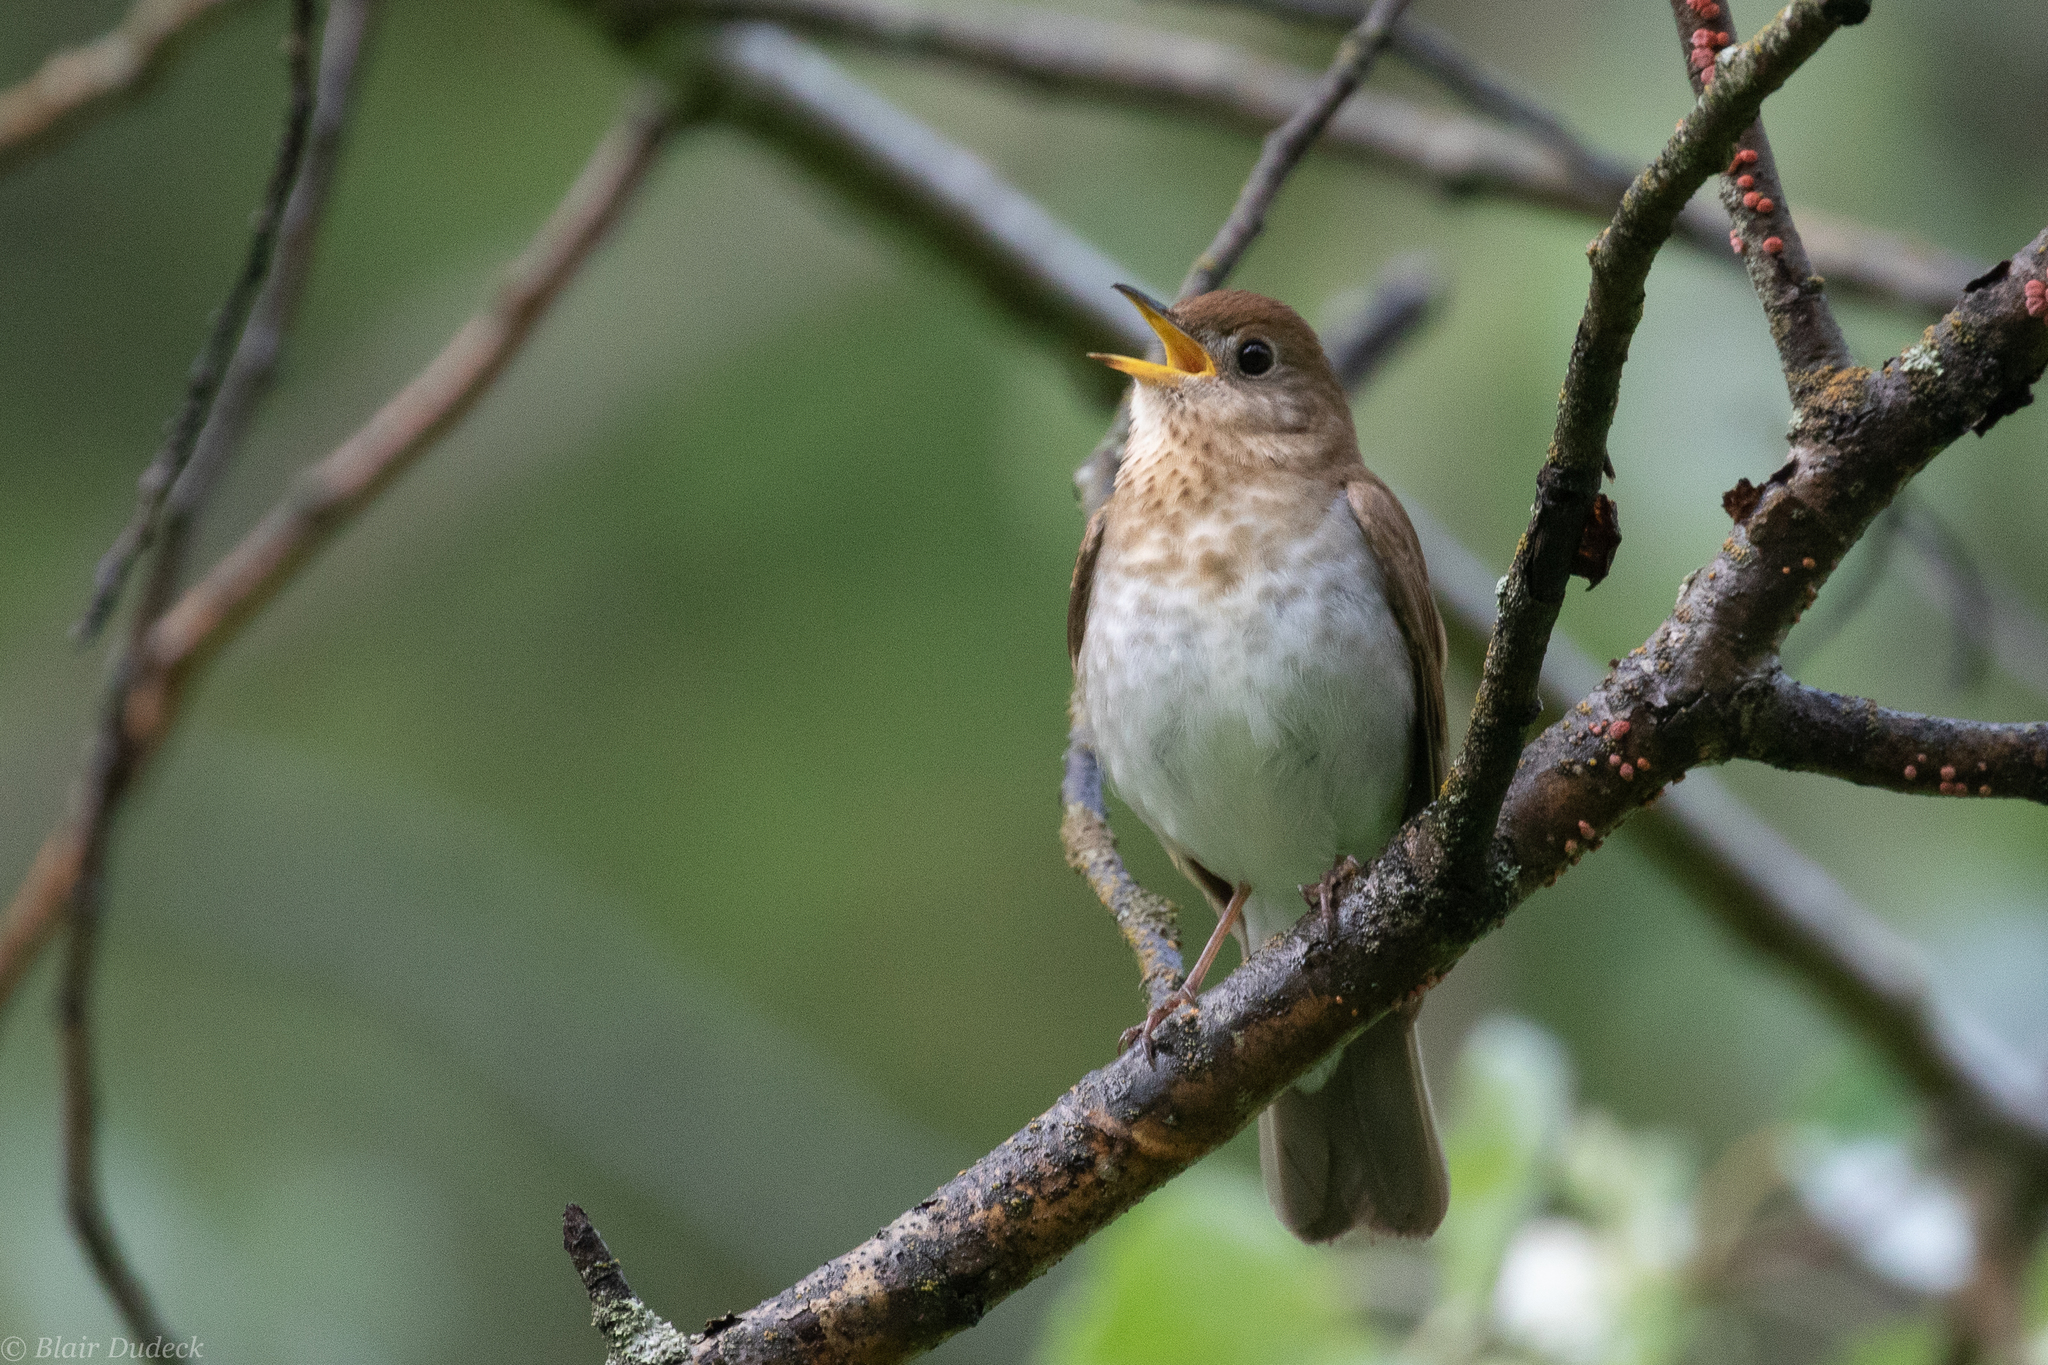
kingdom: Animalia
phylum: Chordata
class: Aves
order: Passeriformes
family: Turdidae
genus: Catharus
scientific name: Catharus fuscescens
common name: Veery
